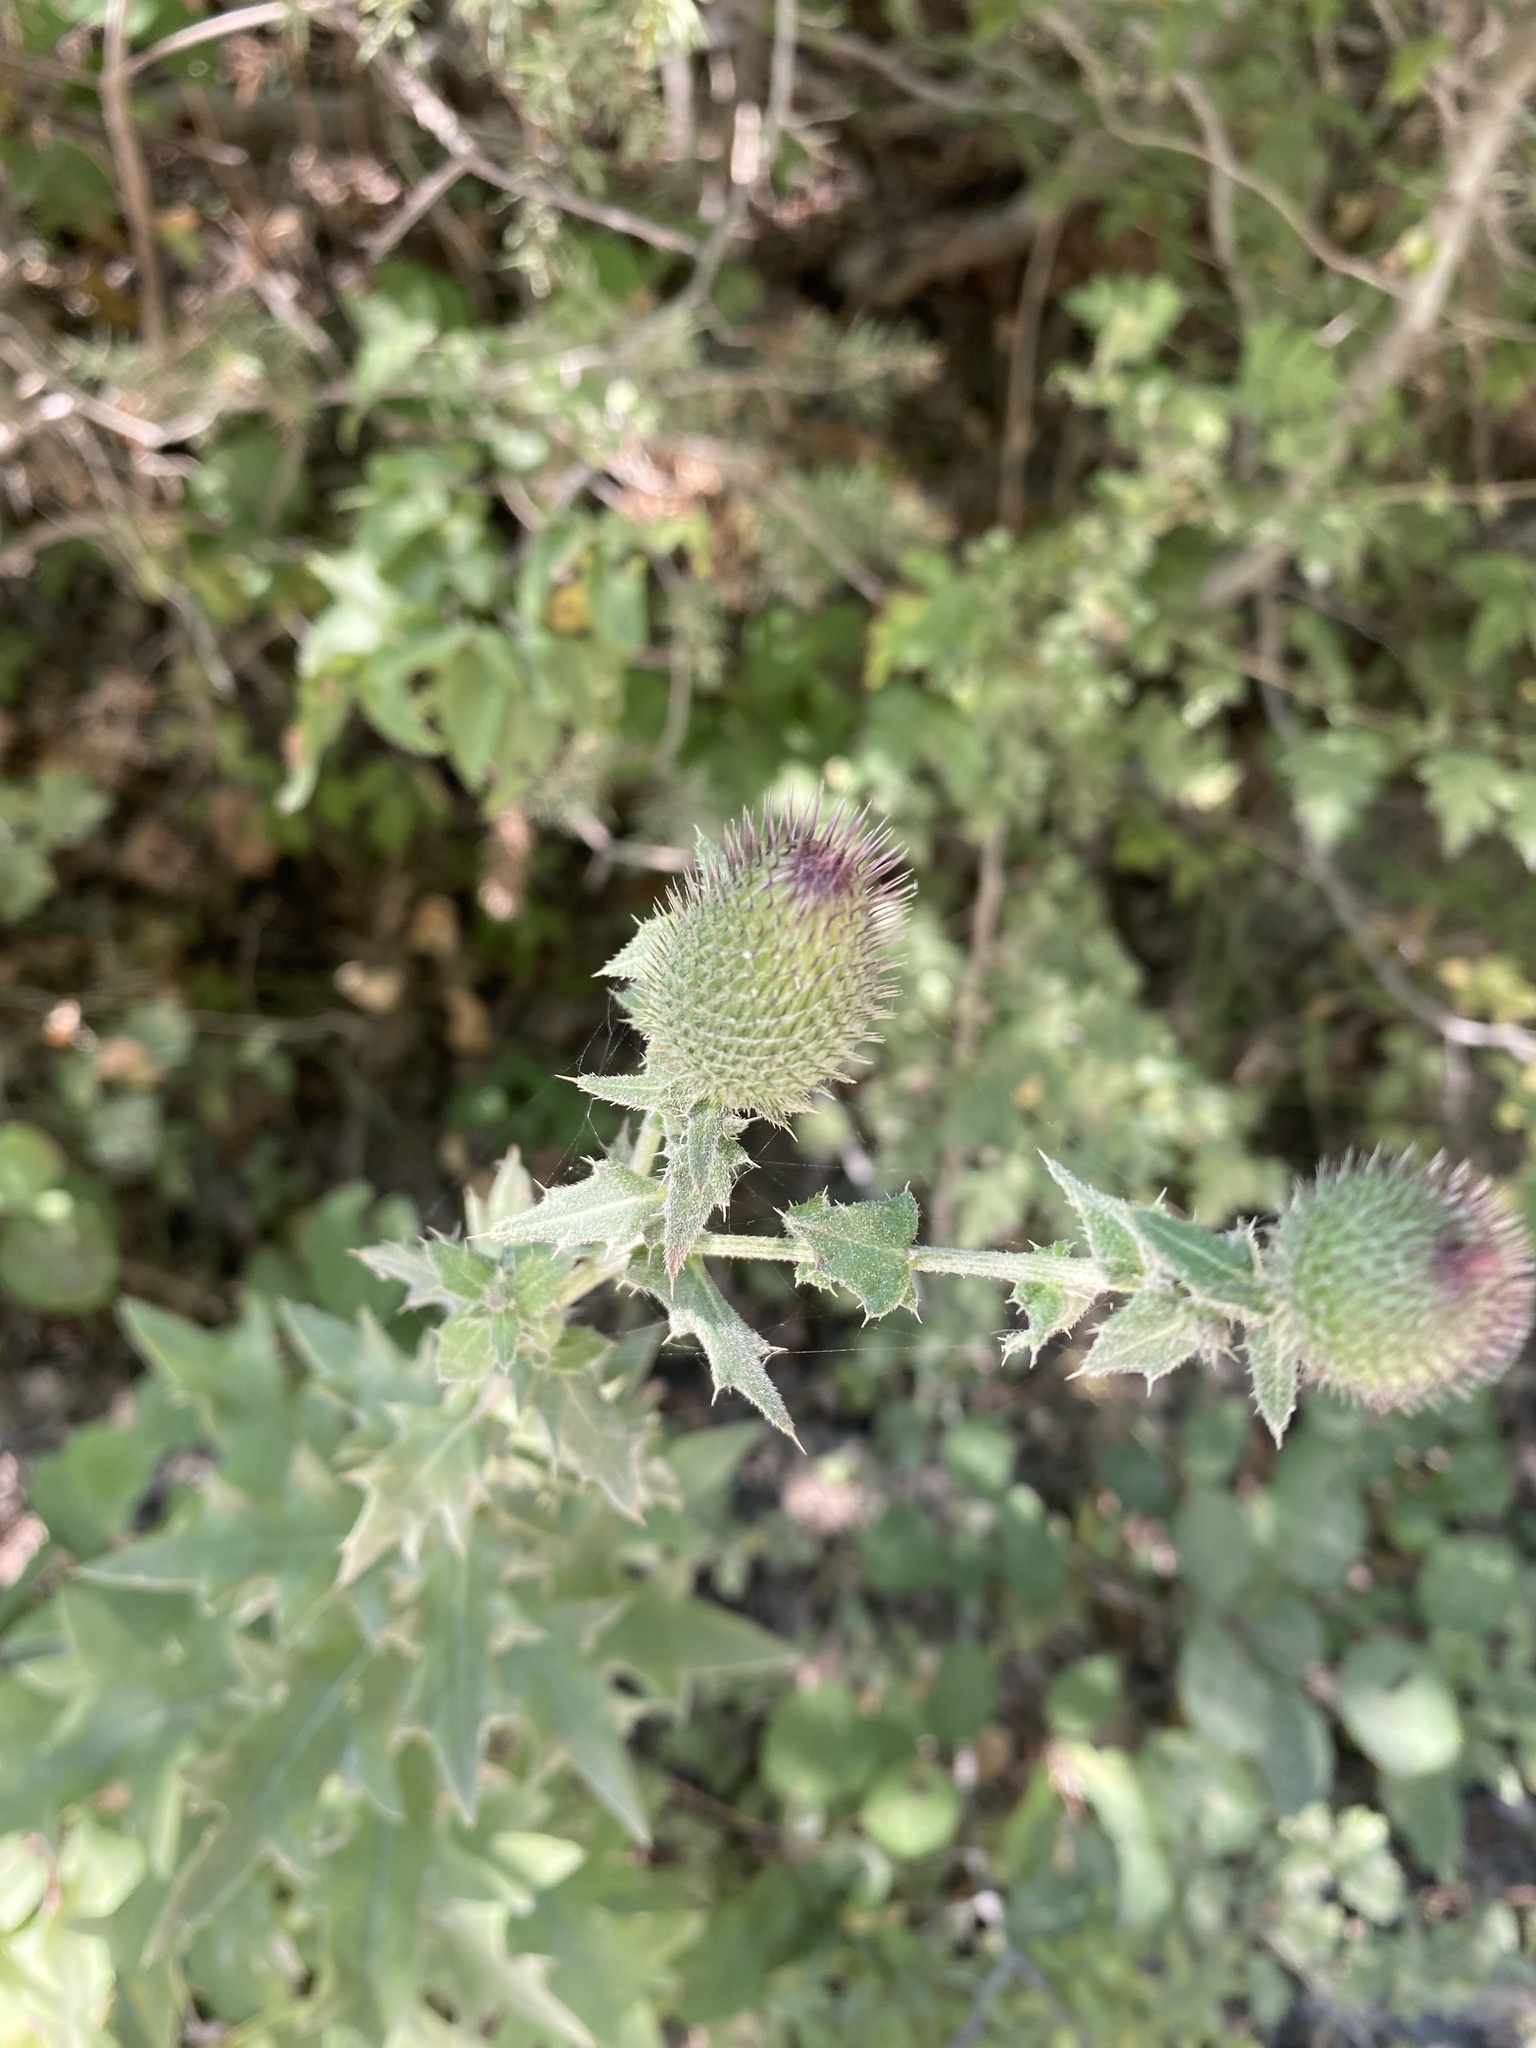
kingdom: Plantae
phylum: Tracheophyta
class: Magnoliopsida
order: Asterales
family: Asteraceae
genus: Lophiolepis
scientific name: Lophiolepis euxina
